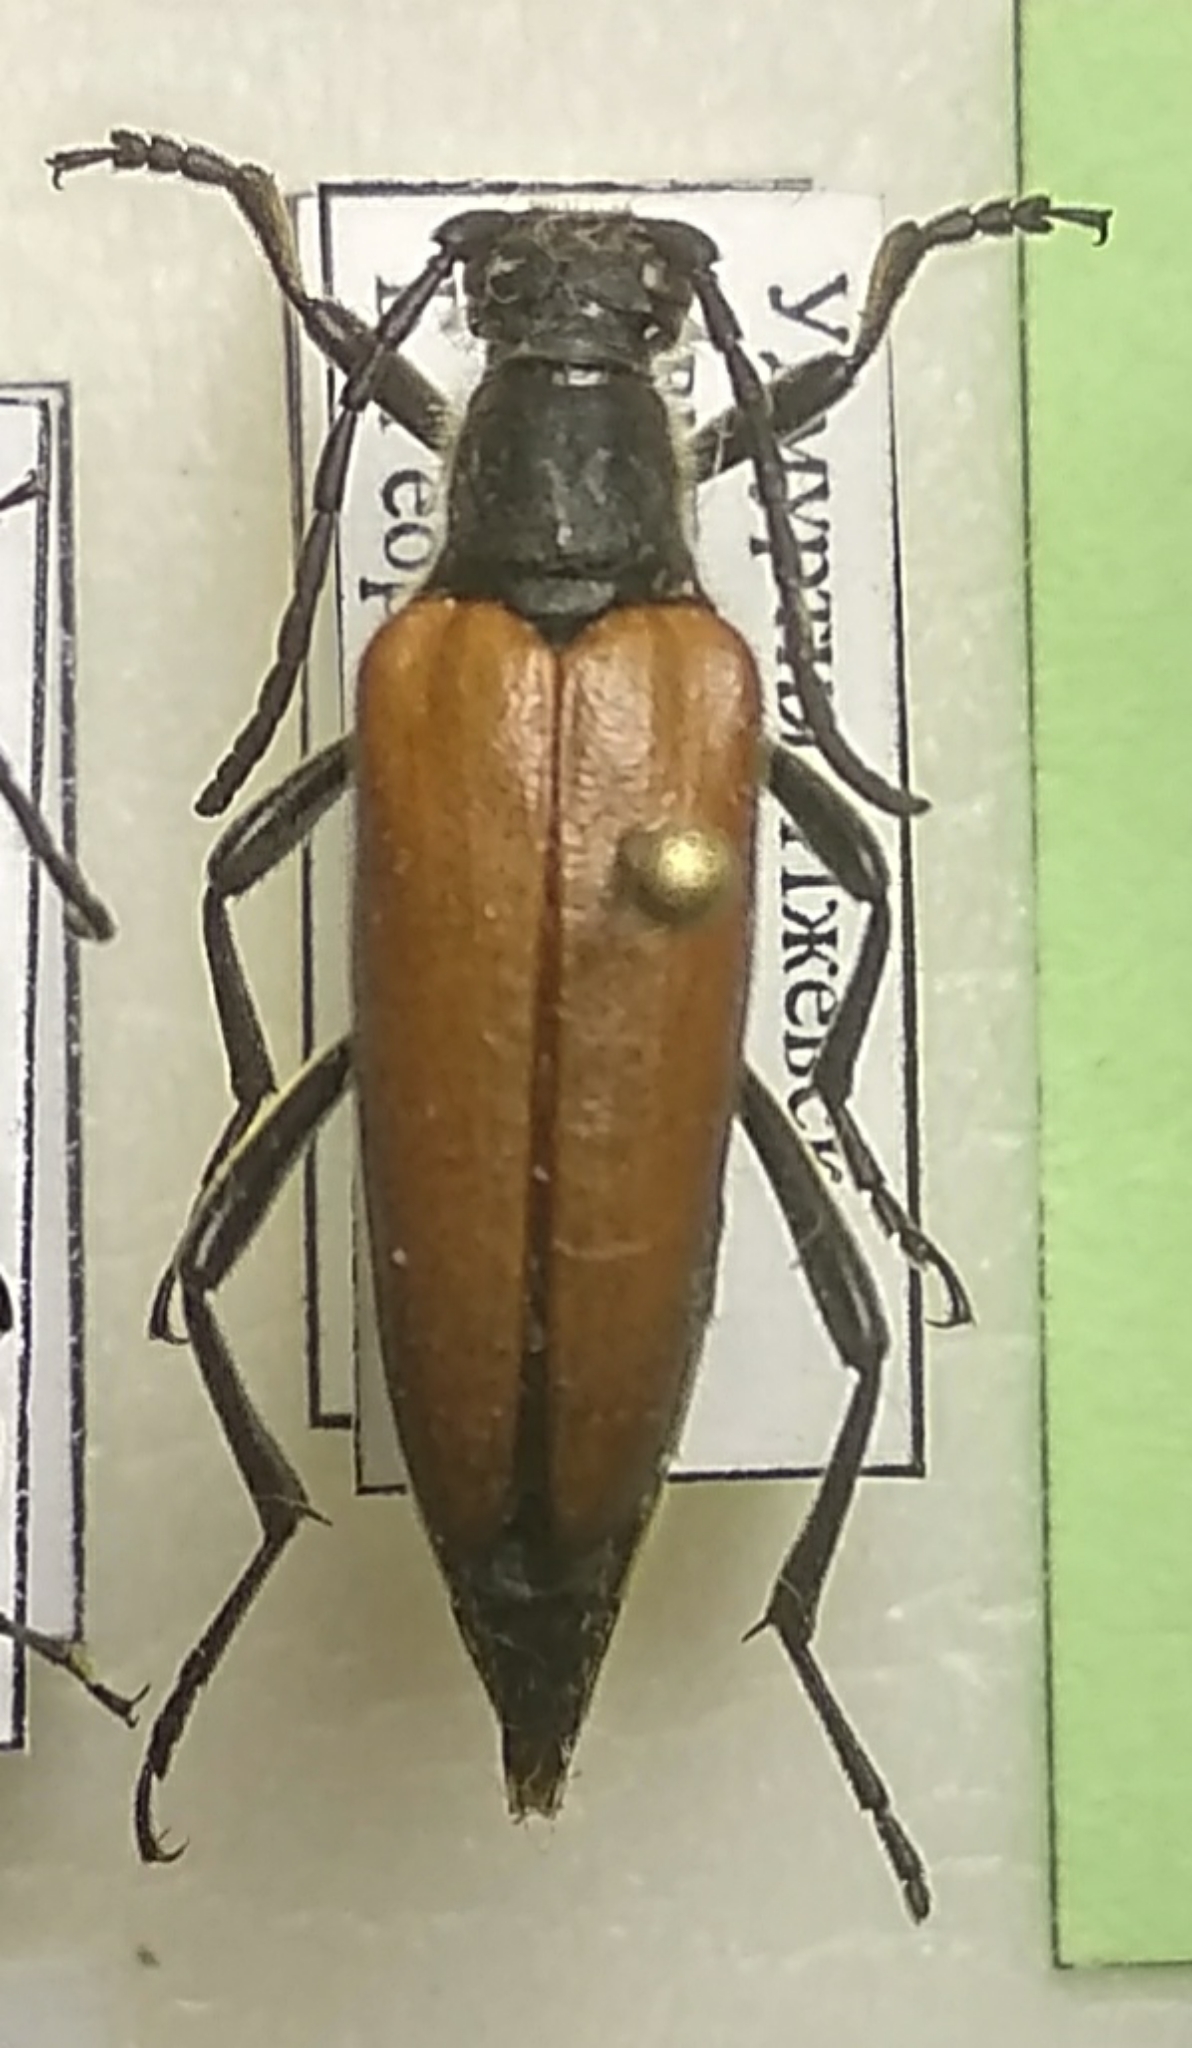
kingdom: Animalia
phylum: Arthropoda
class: Insecta
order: Coleoptera
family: Cerambycidae
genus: Lepturalia
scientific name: Lepturalia nigripes
